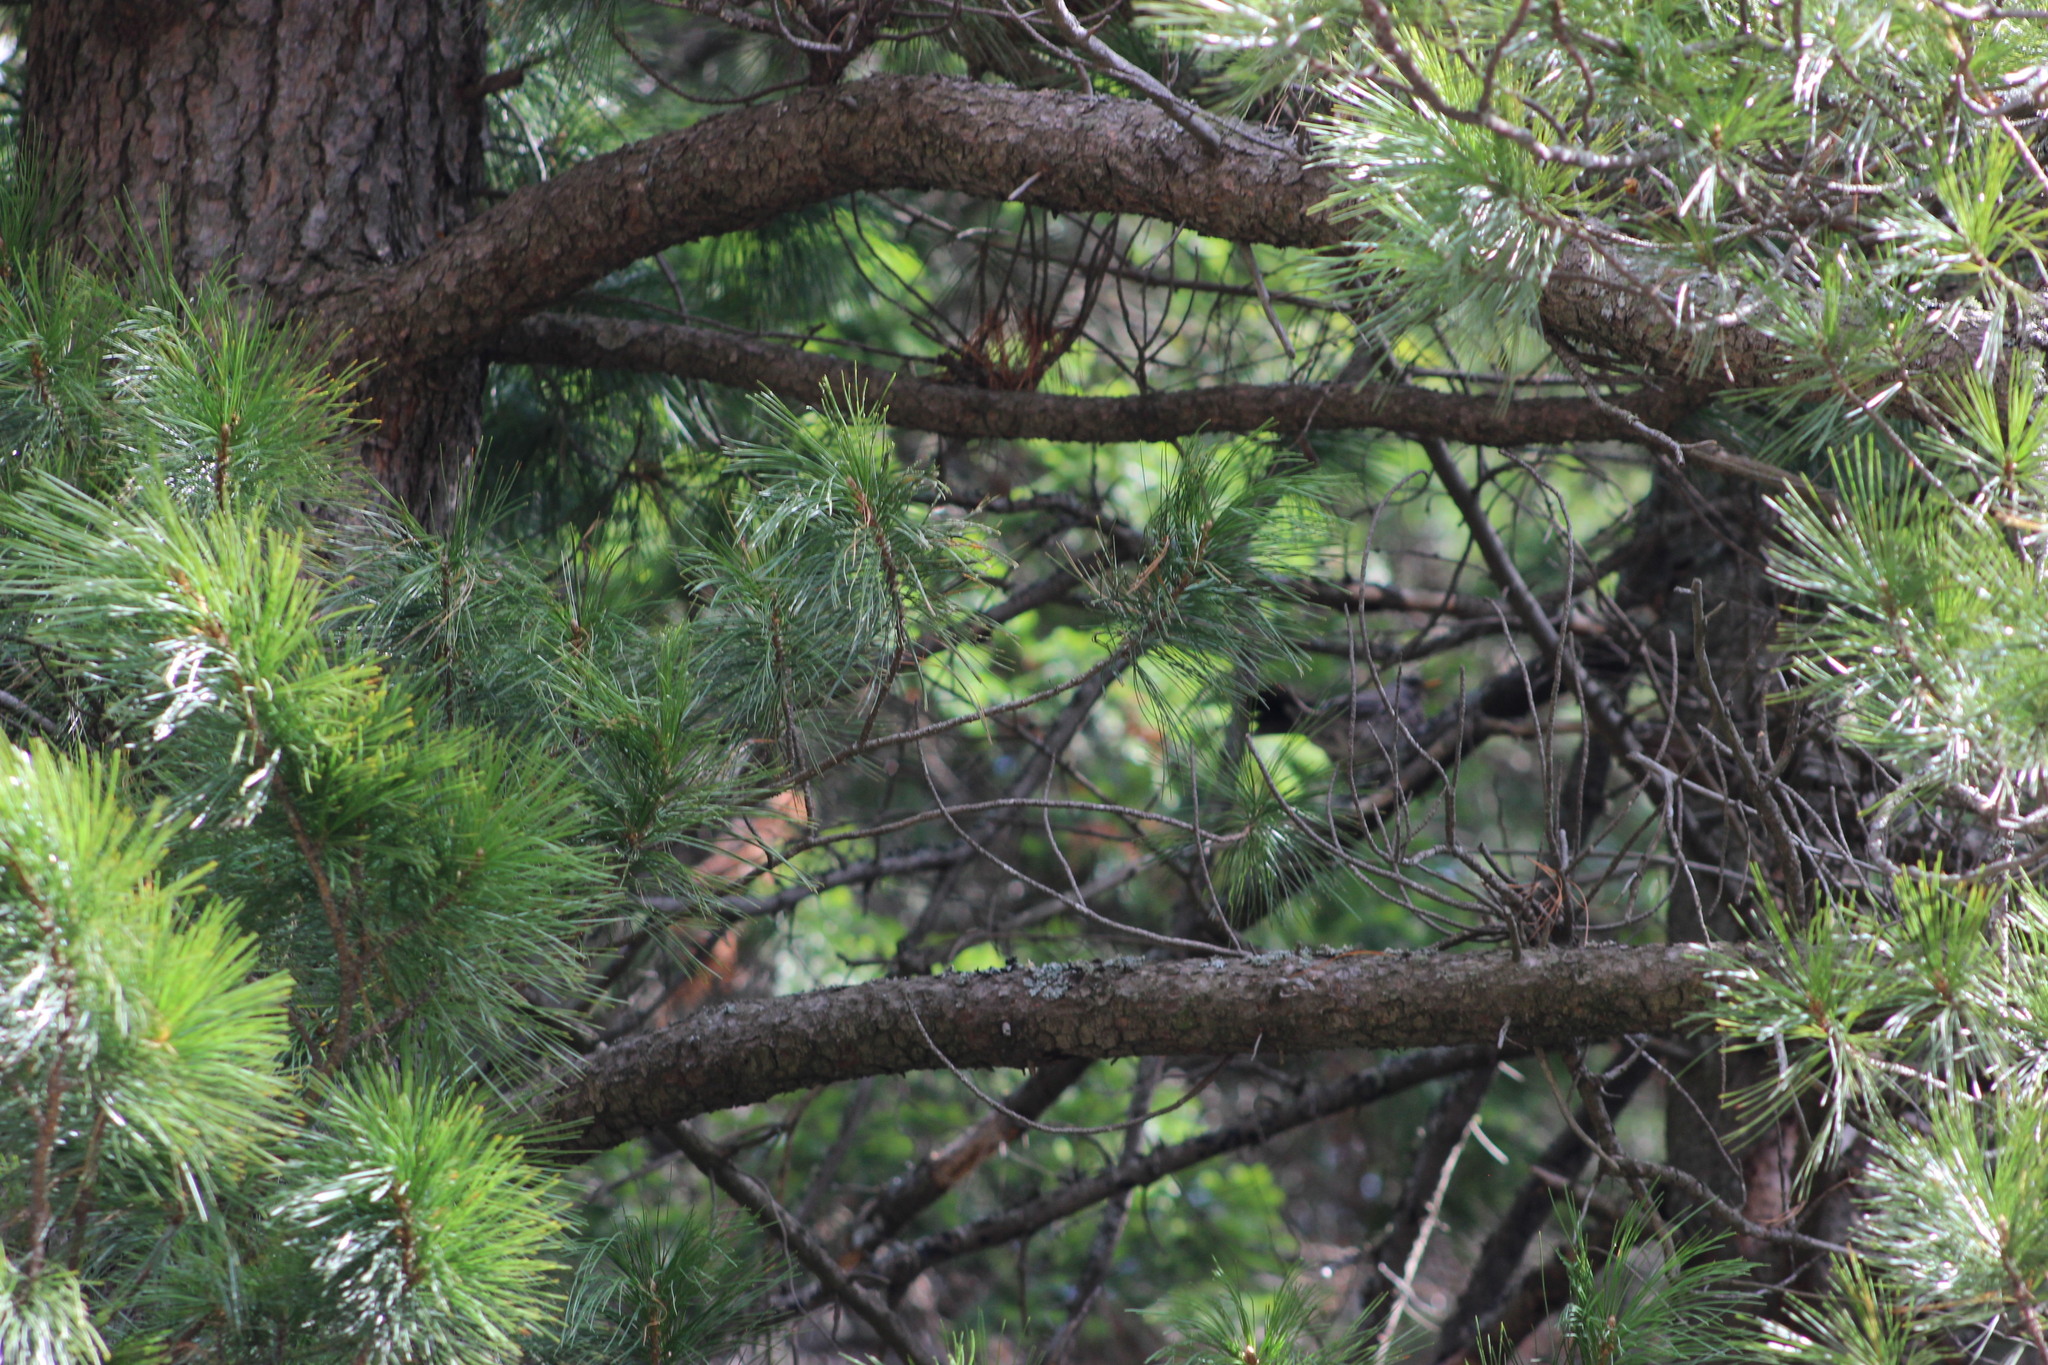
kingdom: Animalia
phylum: Chordata
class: Aves
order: Passeriformes
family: Turdidae
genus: Turdus
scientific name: Turdus pilaris
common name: Fieldfare
